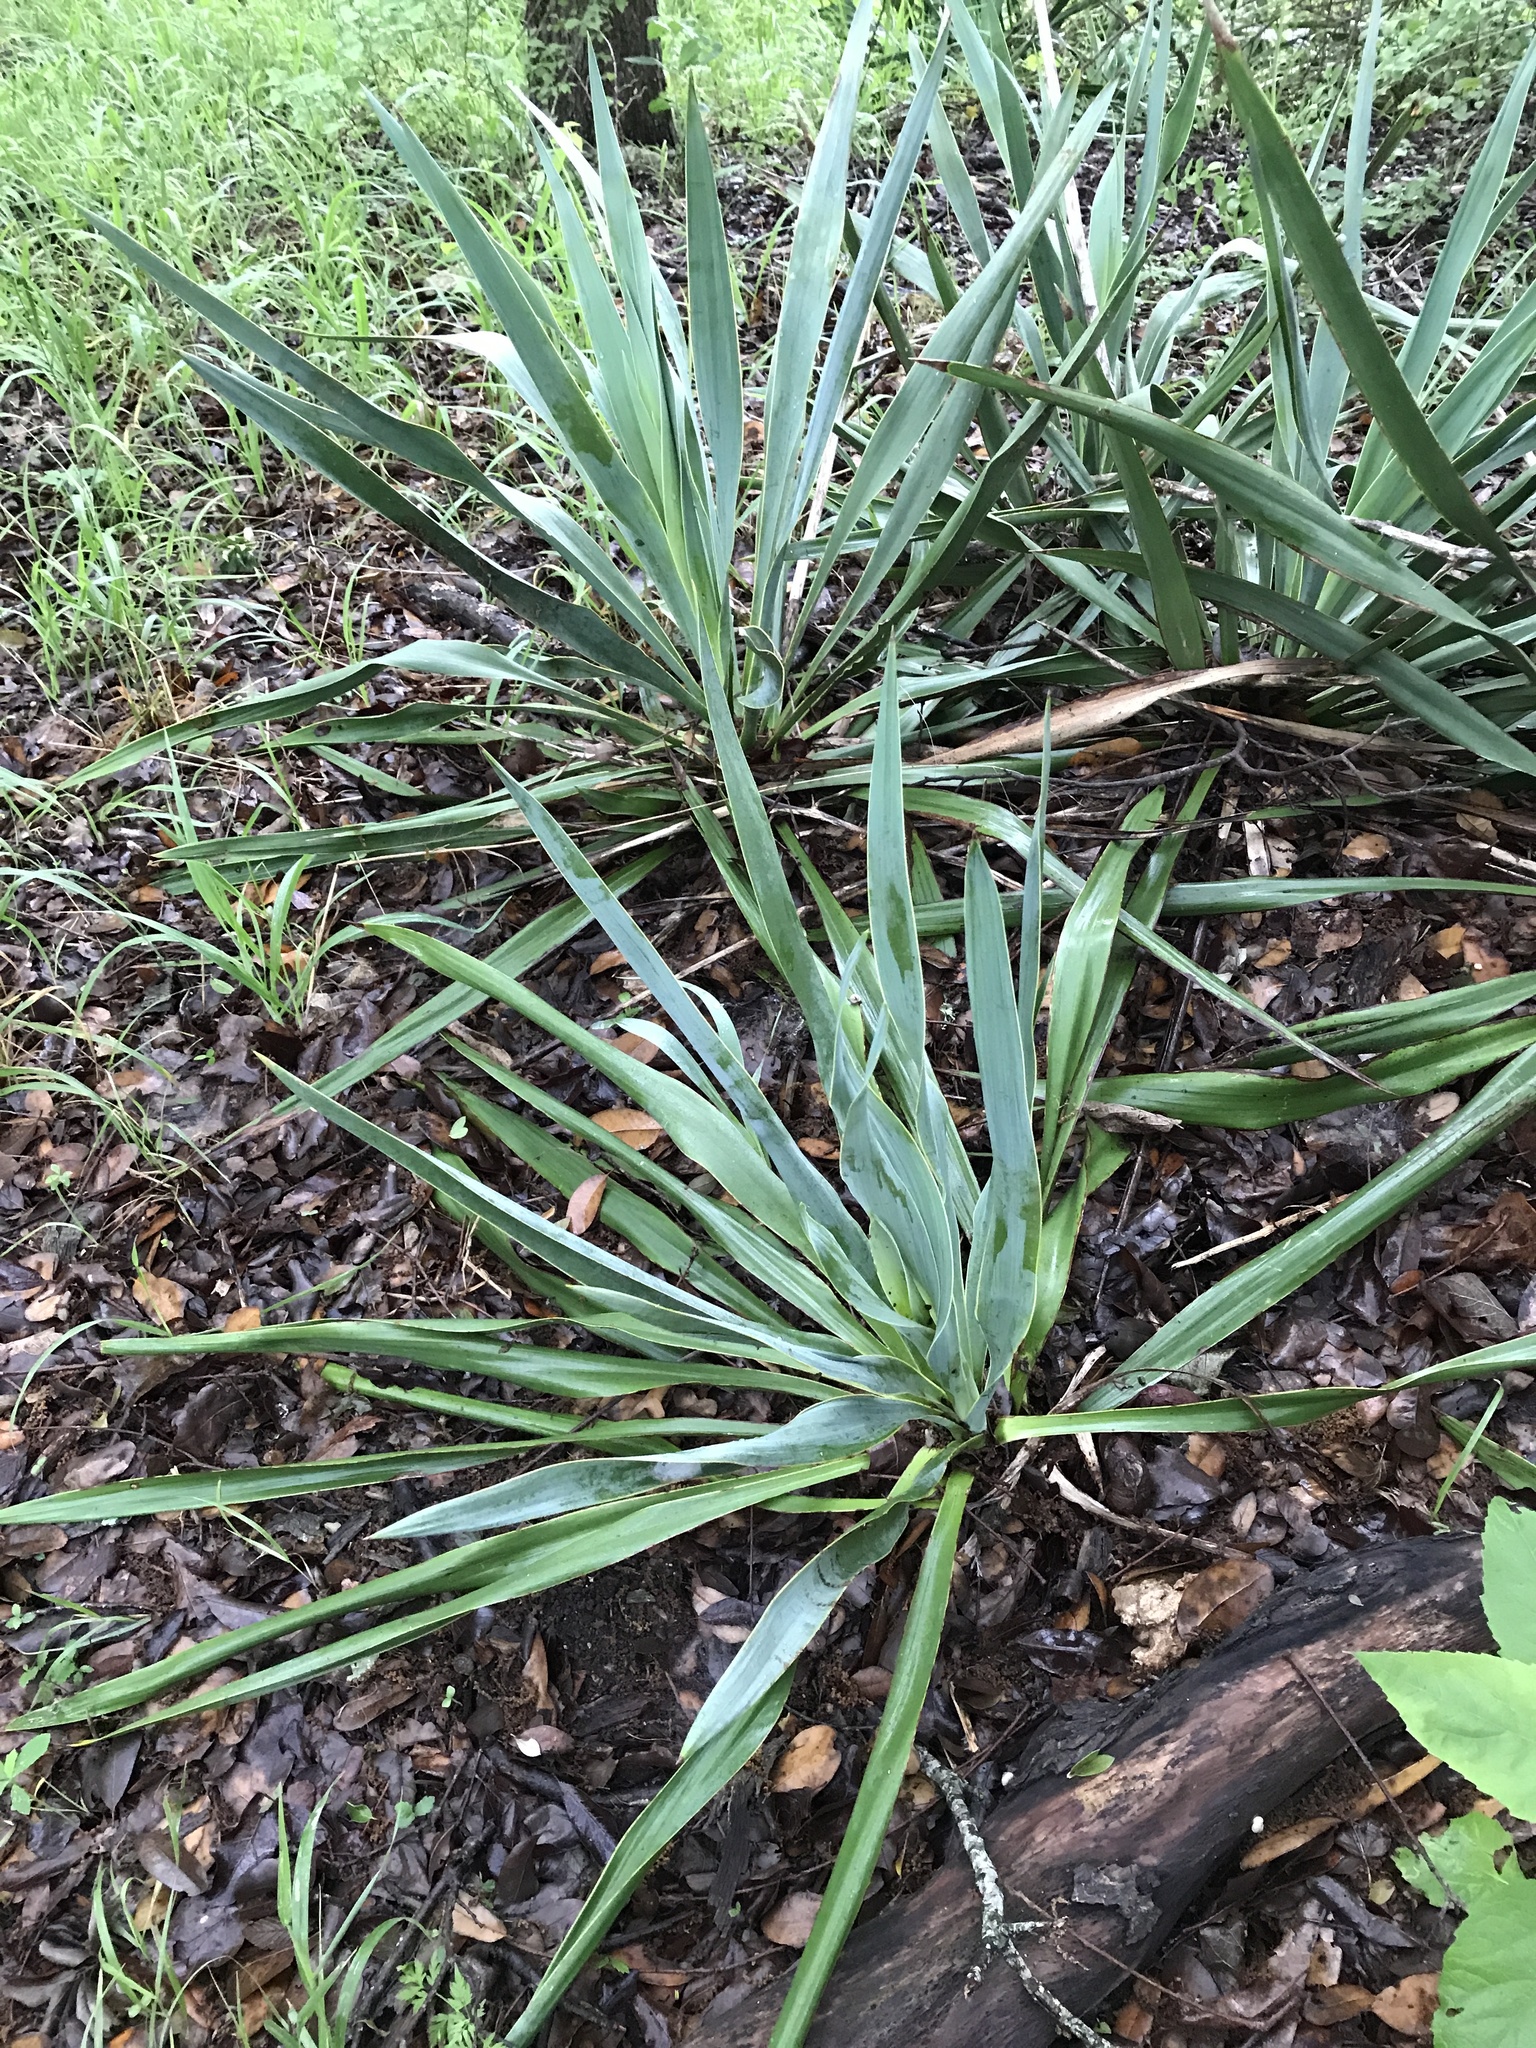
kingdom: Plantae
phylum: Tracheophyta
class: Liliopsida
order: Asparagales
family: Asparagaceae
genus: Yucca
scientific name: Yucca rupicola
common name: Twisted-leaf spanish-dagger
